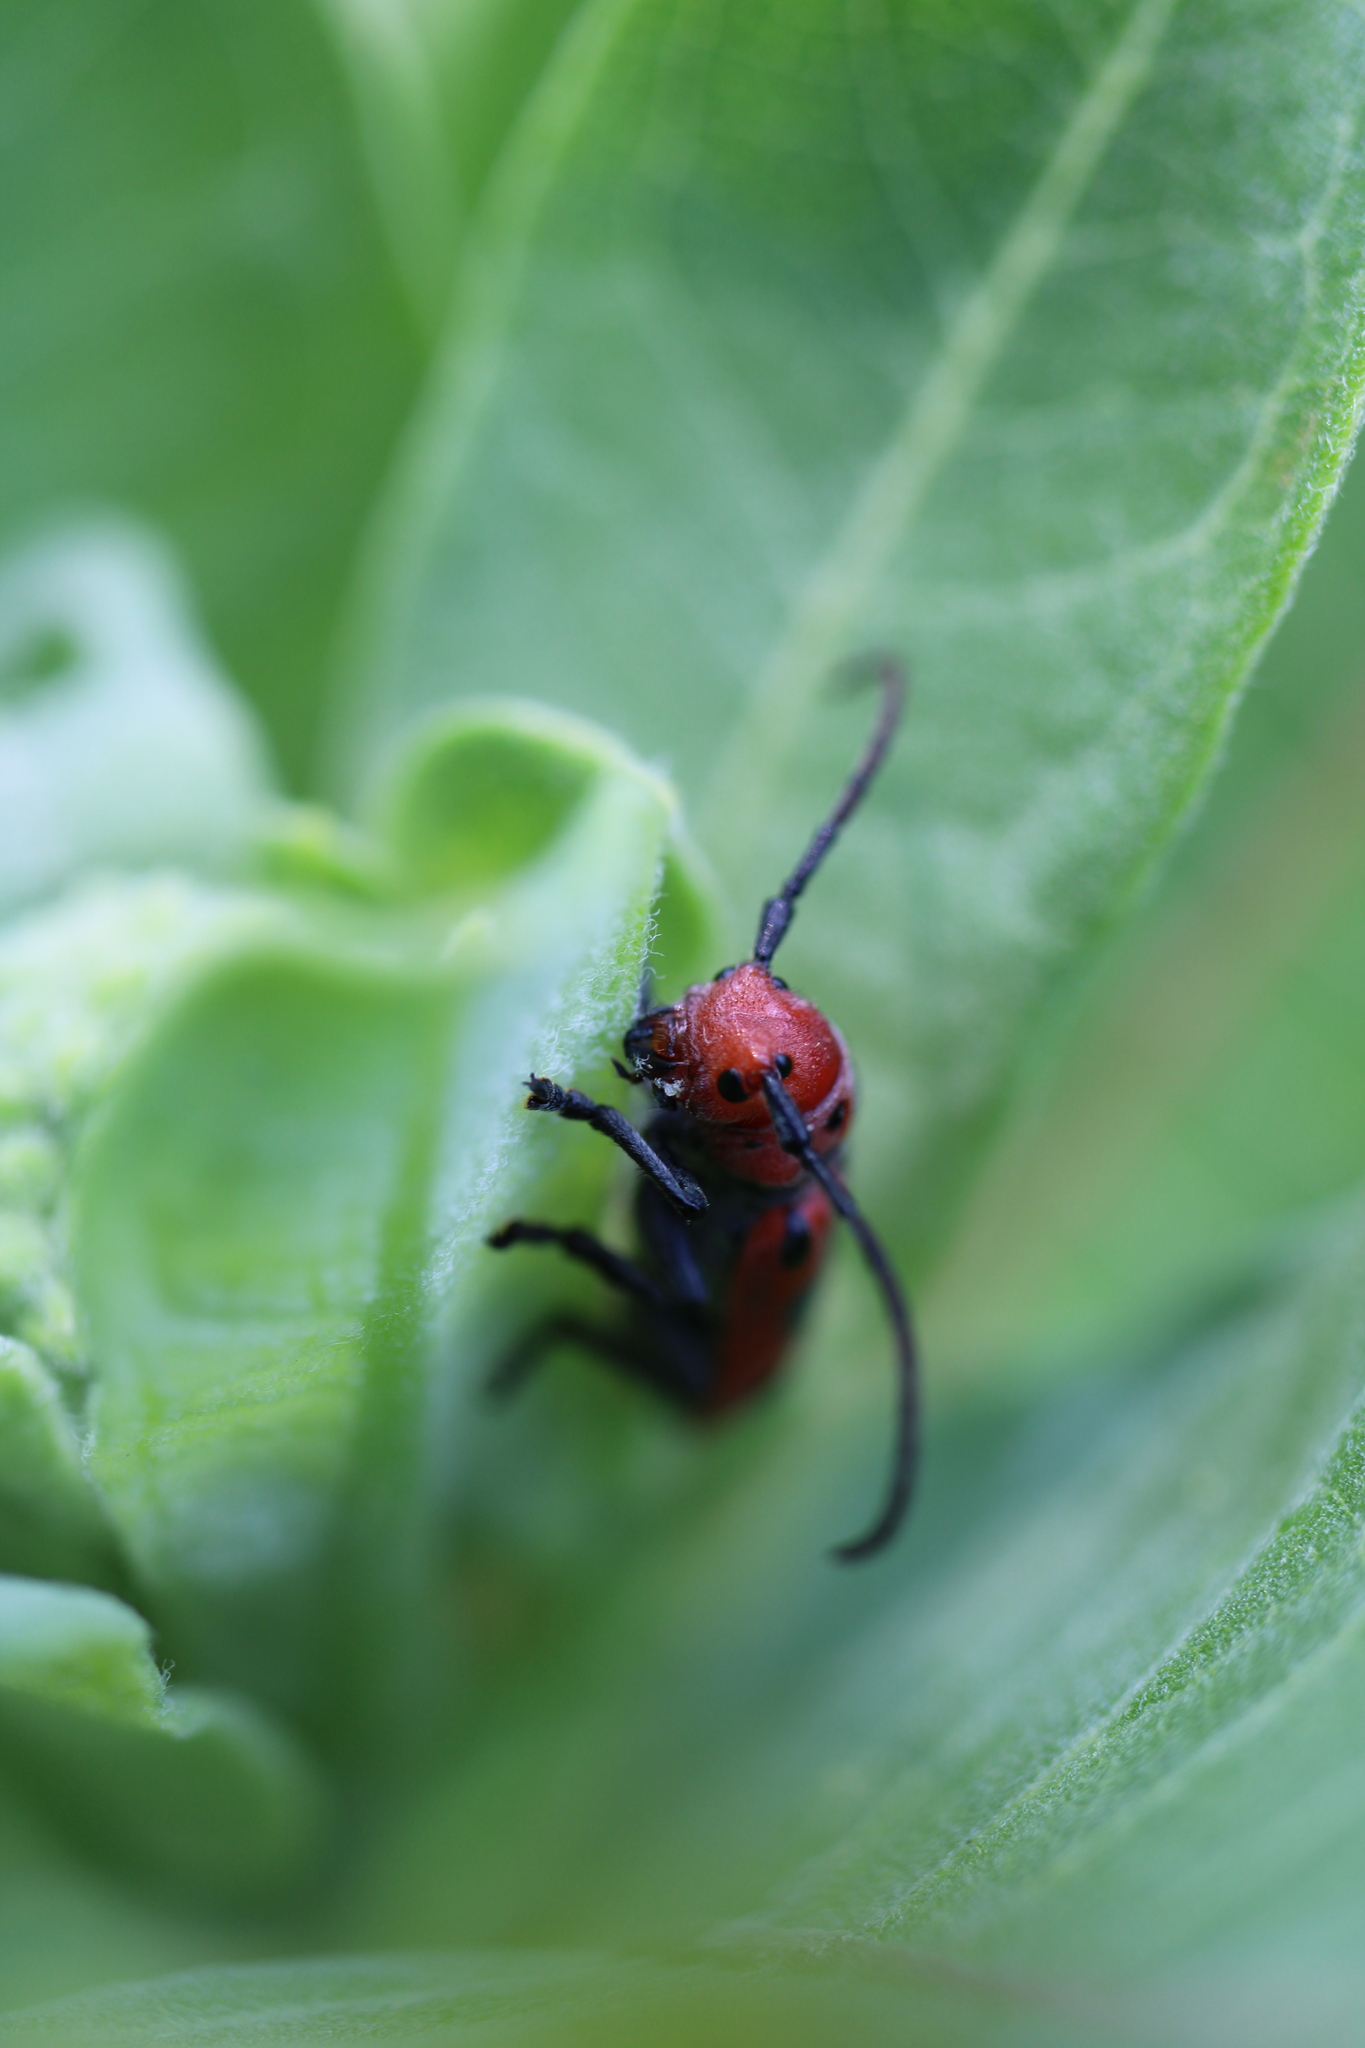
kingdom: Animalia
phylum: Arthropoda
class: Insecta
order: Coleoptera
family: Cerambycidae
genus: Tetraopes
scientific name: Tetraopes tetrophthalmus
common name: Red milkweed beetle
